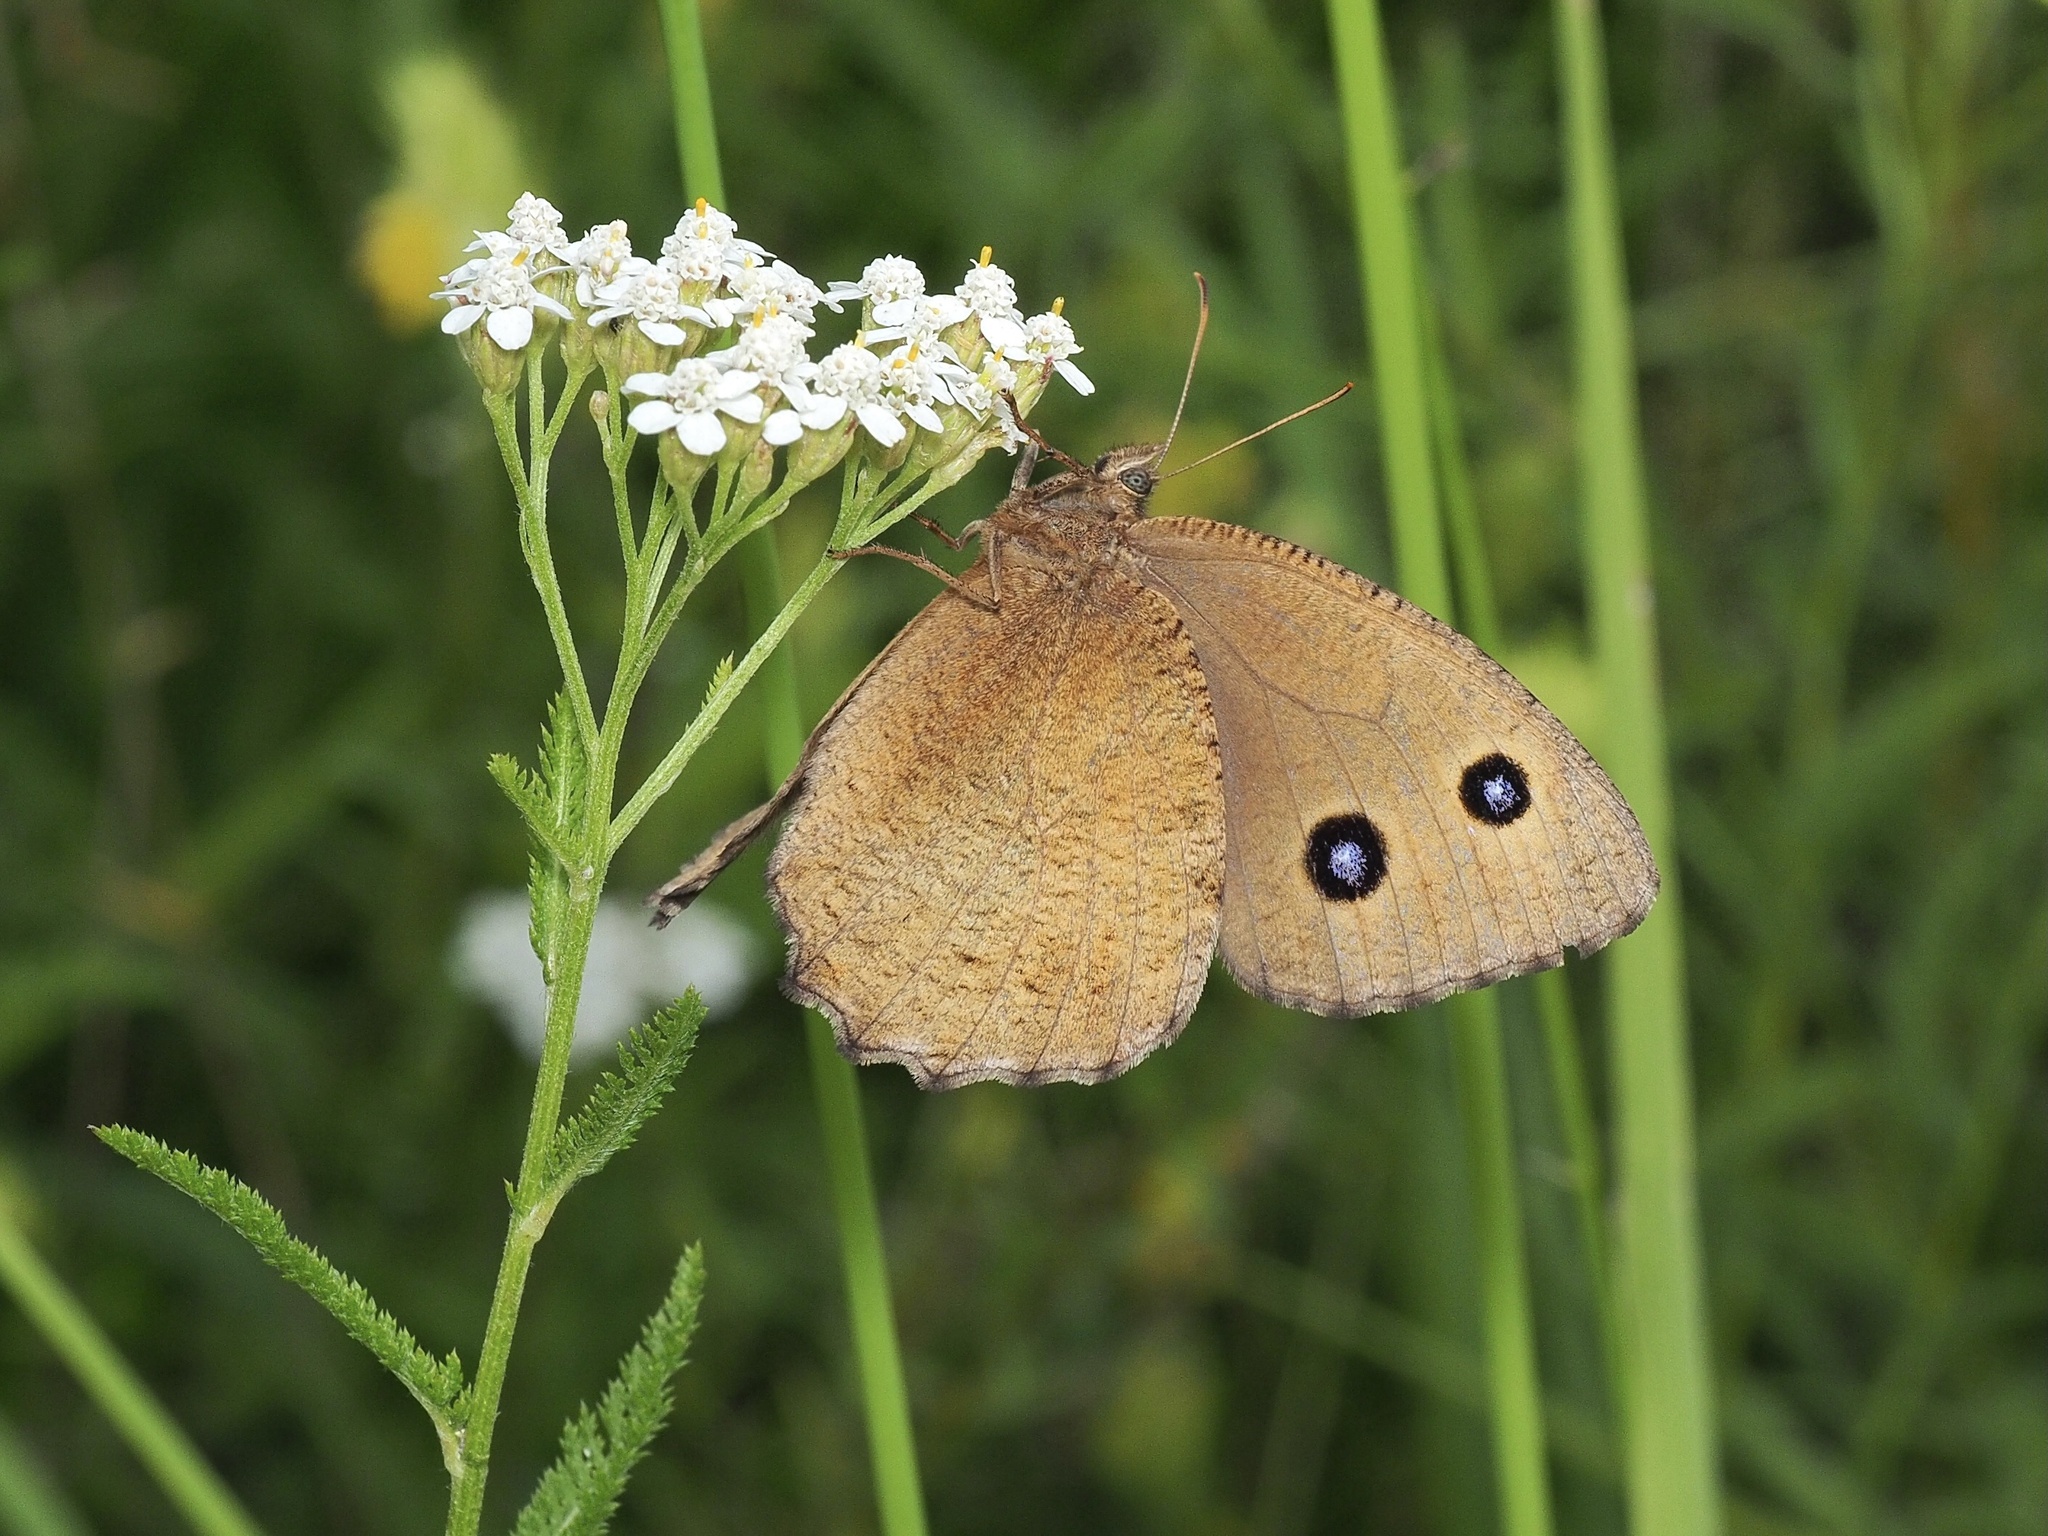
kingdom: Animalia
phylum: Arthropoda
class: Insecta
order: Lepidoptera
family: Nymphalidae
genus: Minois
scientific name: Minois dryas
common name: Dryad
